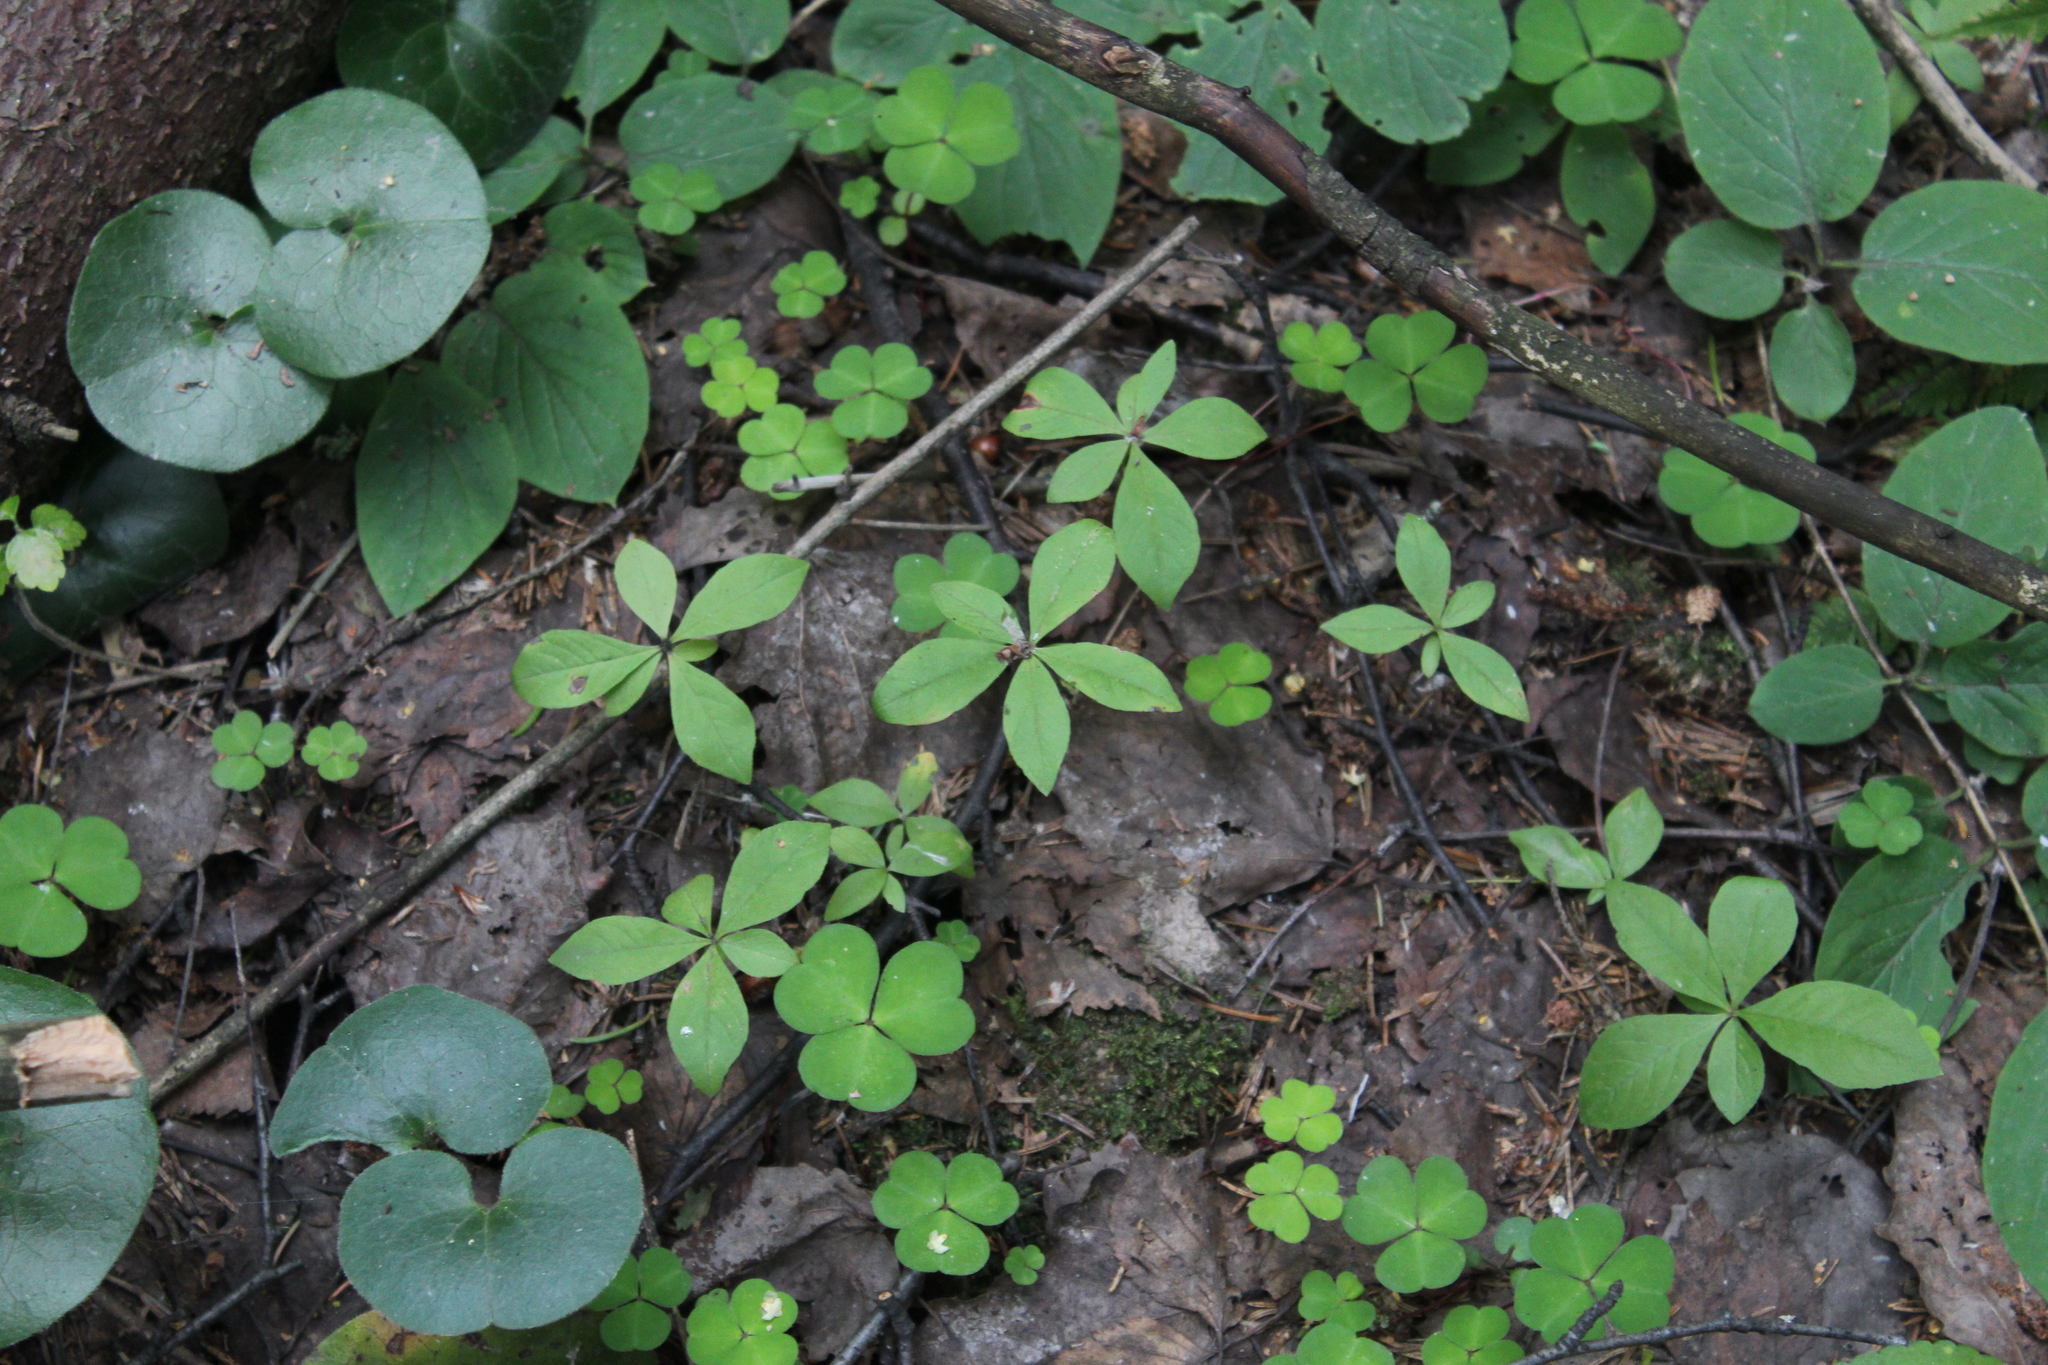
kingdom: Plantae
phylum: Tracheophyta
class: Magnoliopsida
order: Ericales
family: Primulaceae
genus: Lysimachia
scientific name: Lysimachia europaea
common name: Arctic starflower
